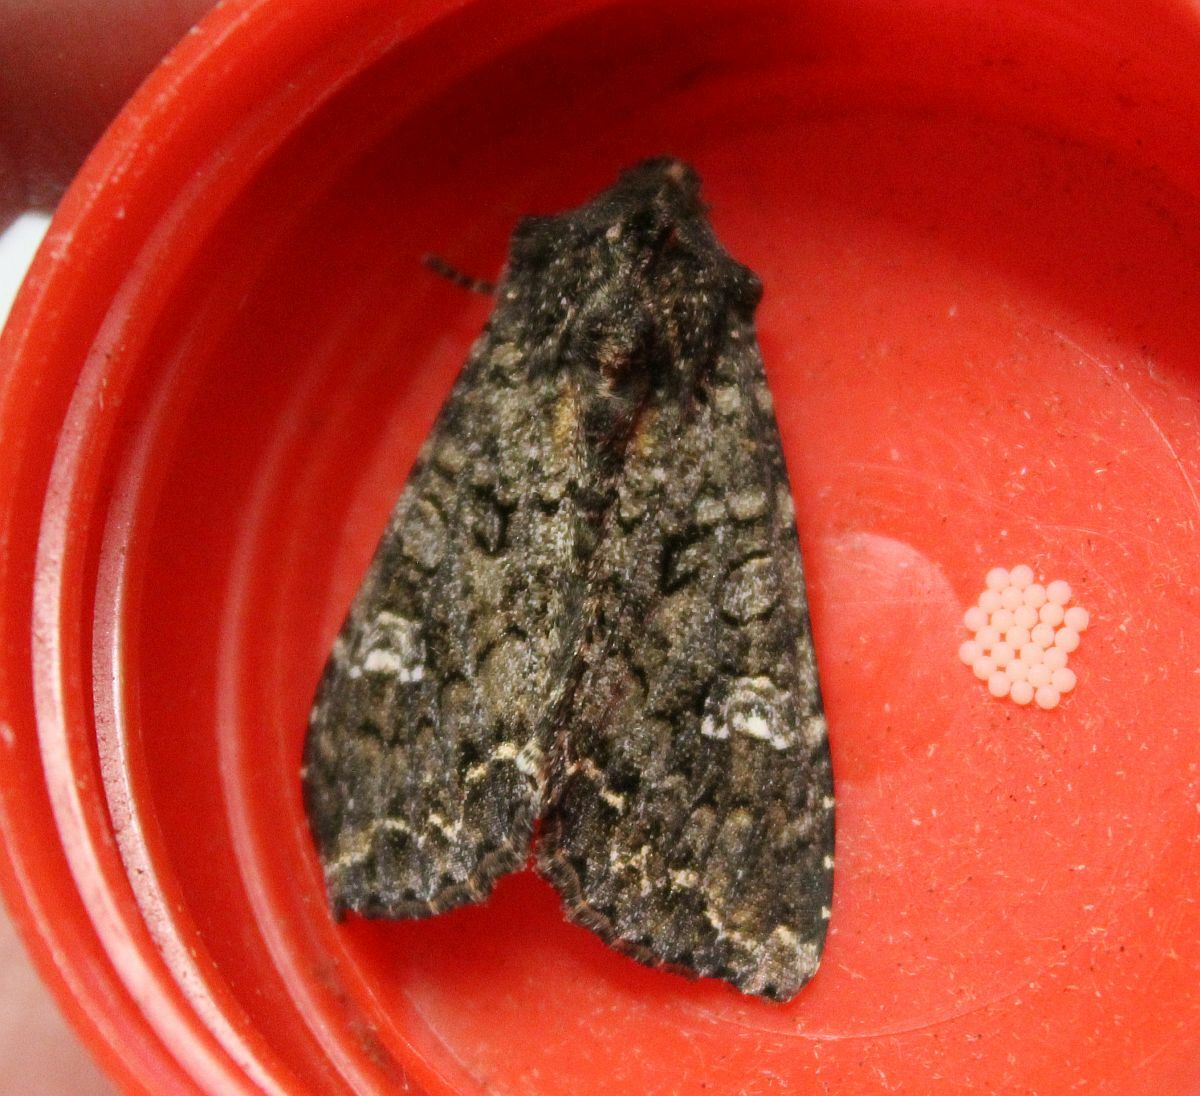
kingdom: Animalia
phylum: Arthropoda
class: Insecta
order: Lepidoptera
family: Noctuidae
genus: Mamestra
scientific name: Mamestra brassicae
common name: Cabbage moth
